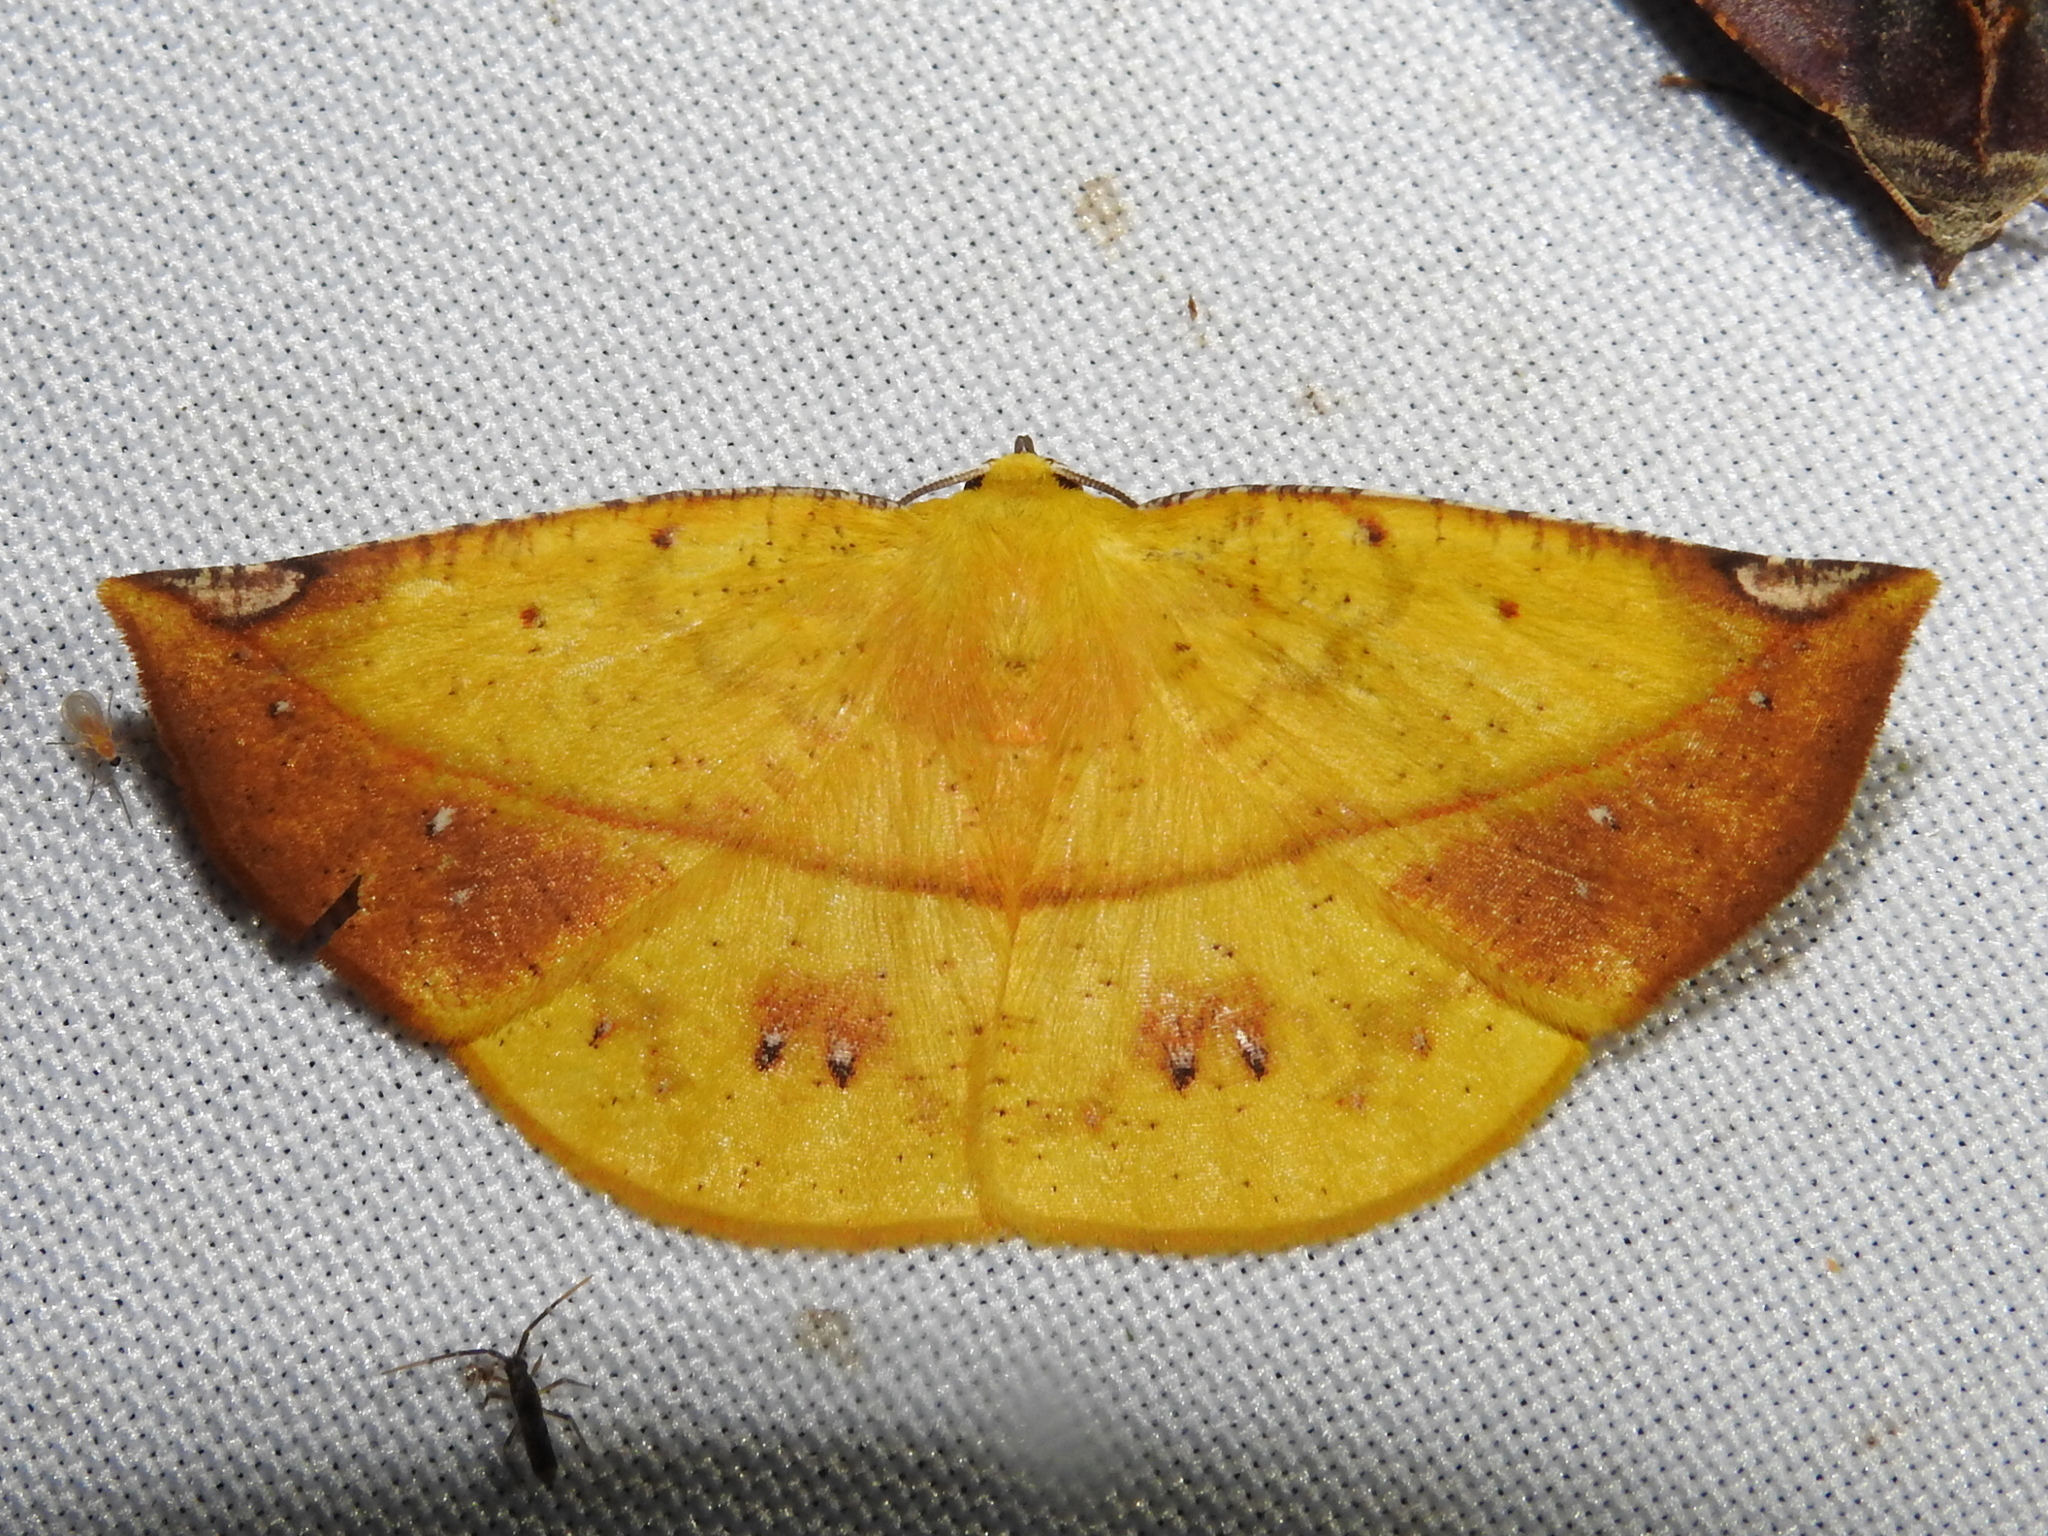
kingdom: Animalia
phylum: Arthropoda
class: Insecta
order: Lepidoptera
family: Geometridae
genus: Cratoptera
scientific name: Cratoptera zarumata
